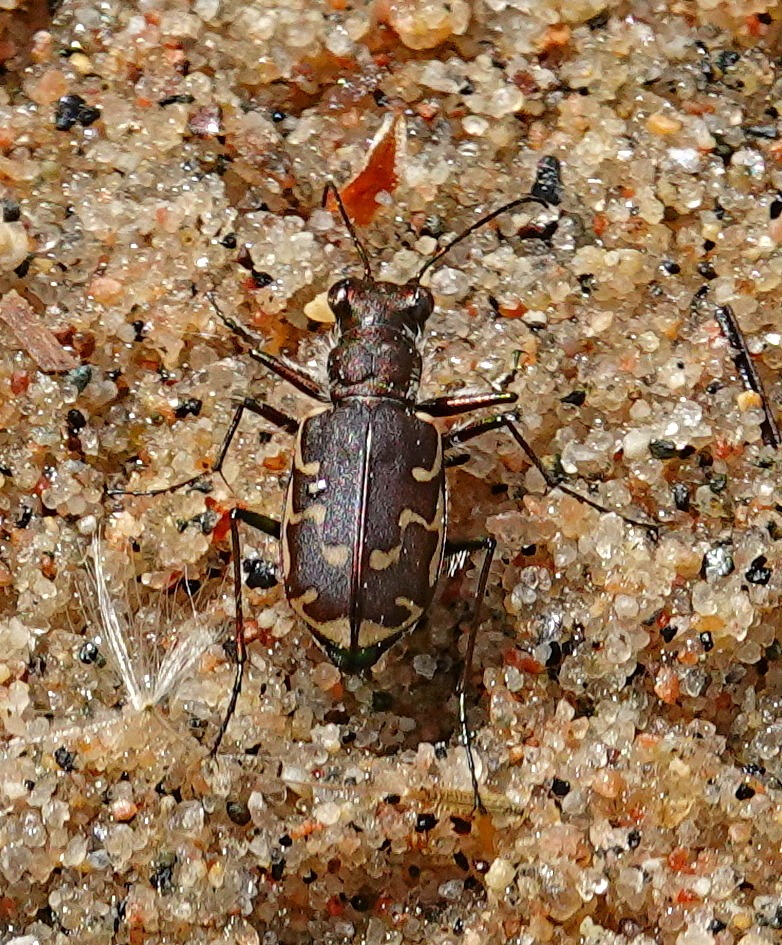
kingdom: Animalia
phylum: Arthropoda
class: Insecta
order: Coleoptera
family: Carabidae
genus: Cicindela
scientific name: Cicindela repanda
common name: Bronzed tiger beetle
